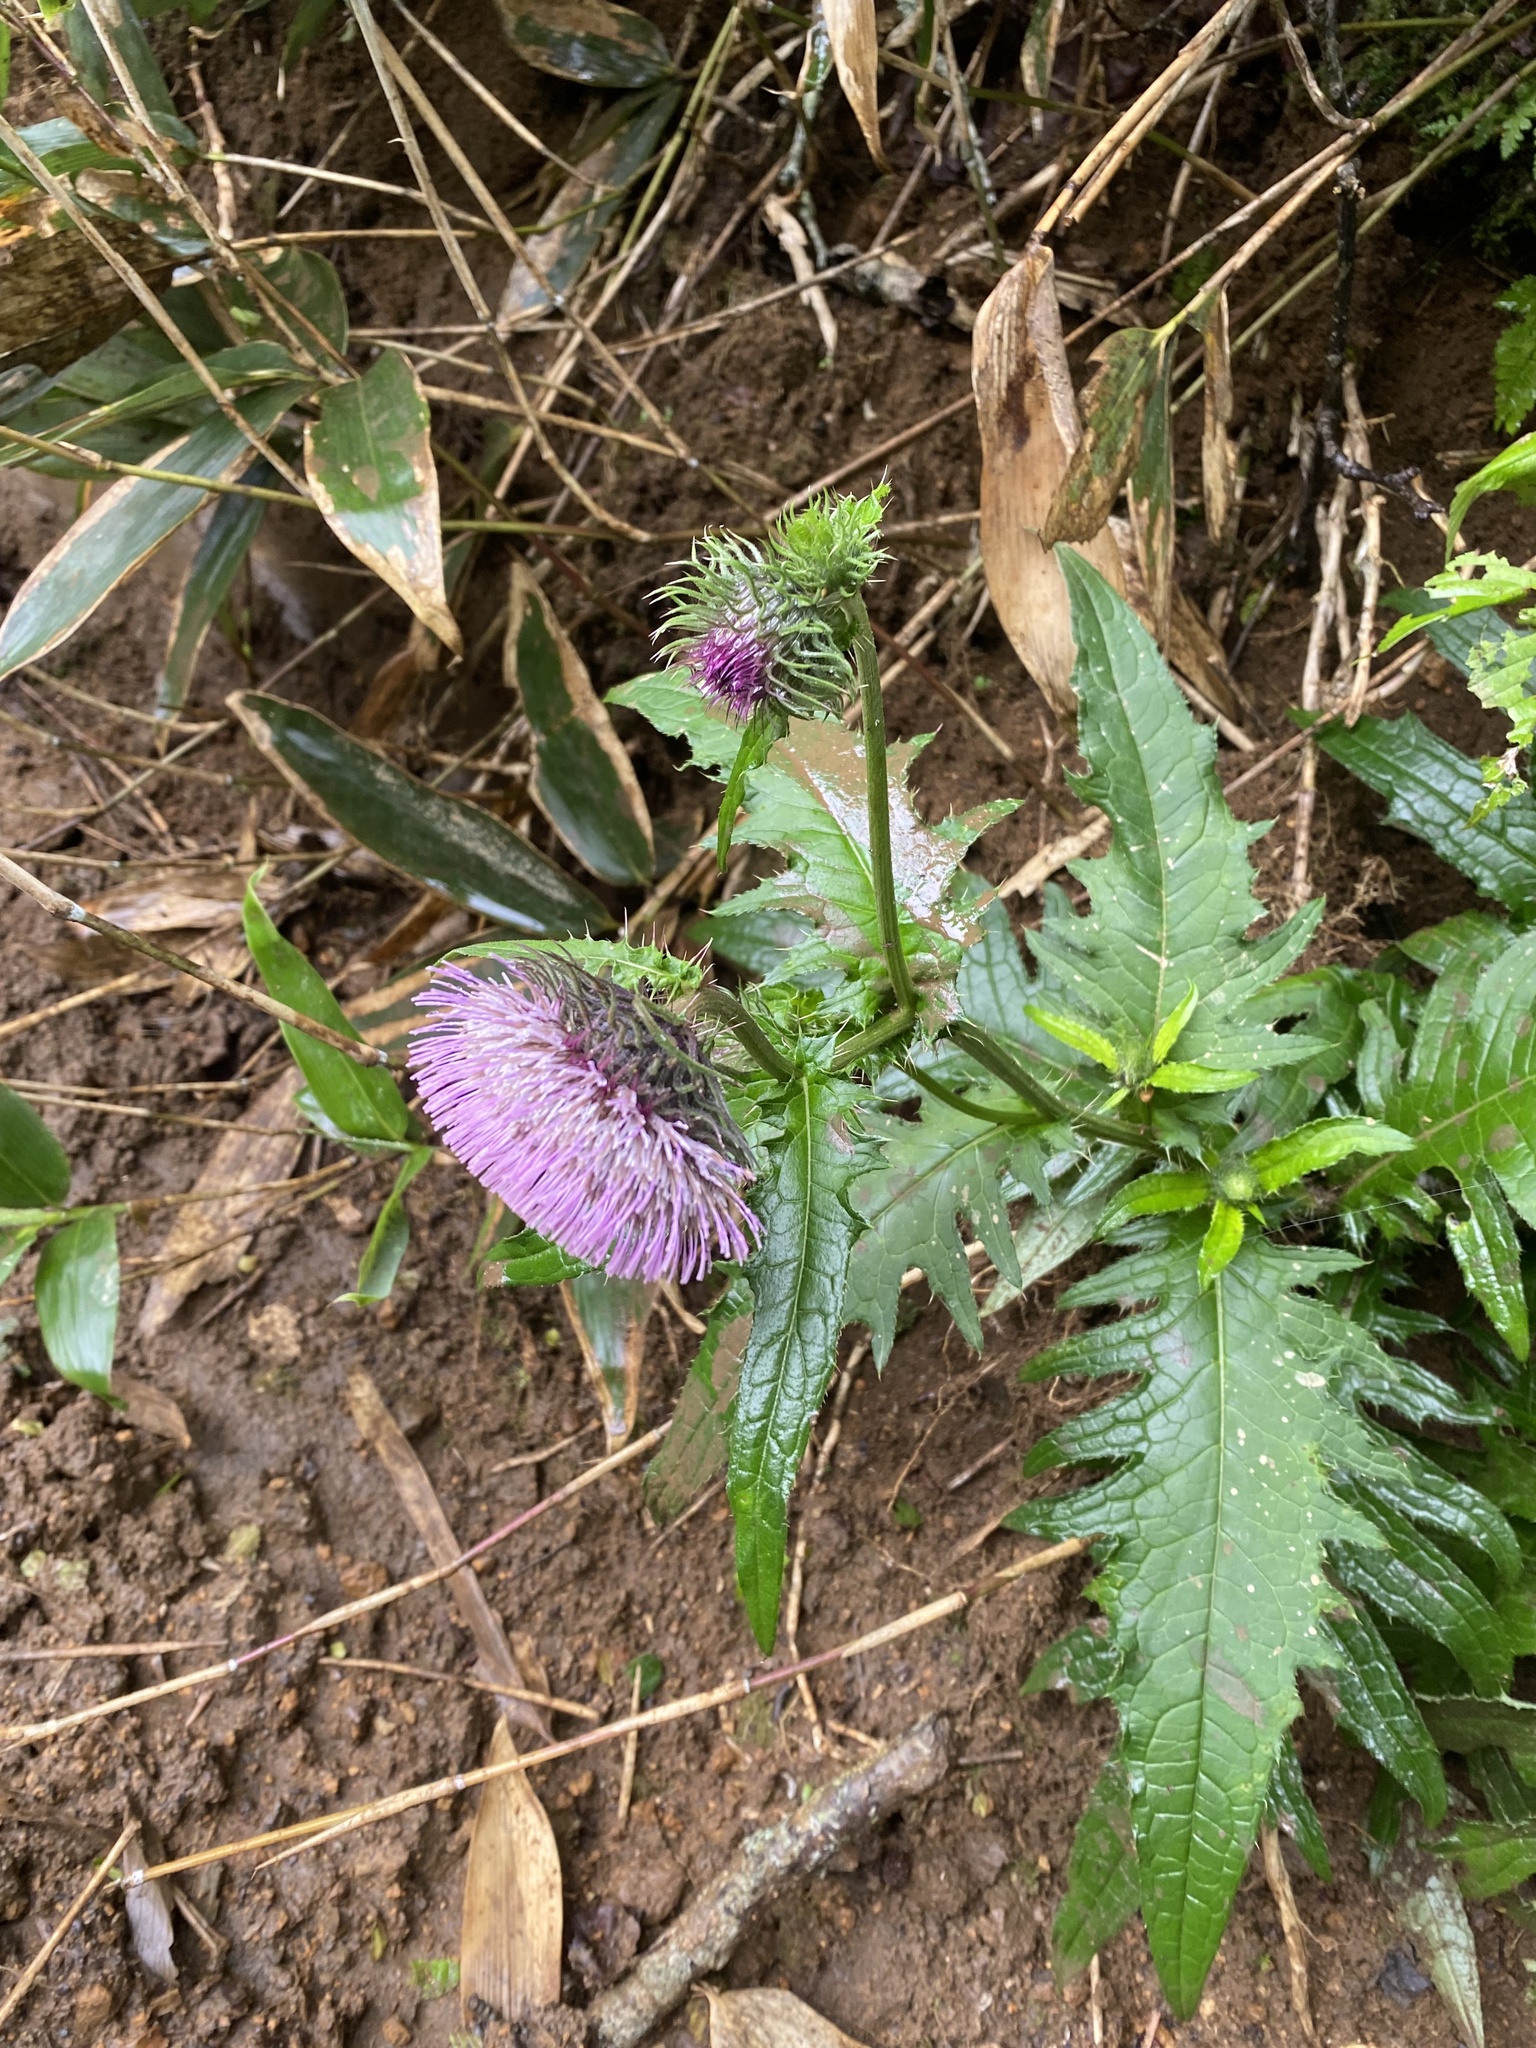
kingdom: Plantae
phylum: Tracheophyta
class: Magnoliopsida
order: Asterales
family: Asteraceae
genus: Cirsium
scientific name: Cirsium kamtschaticum
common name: Kamchatka thistle
